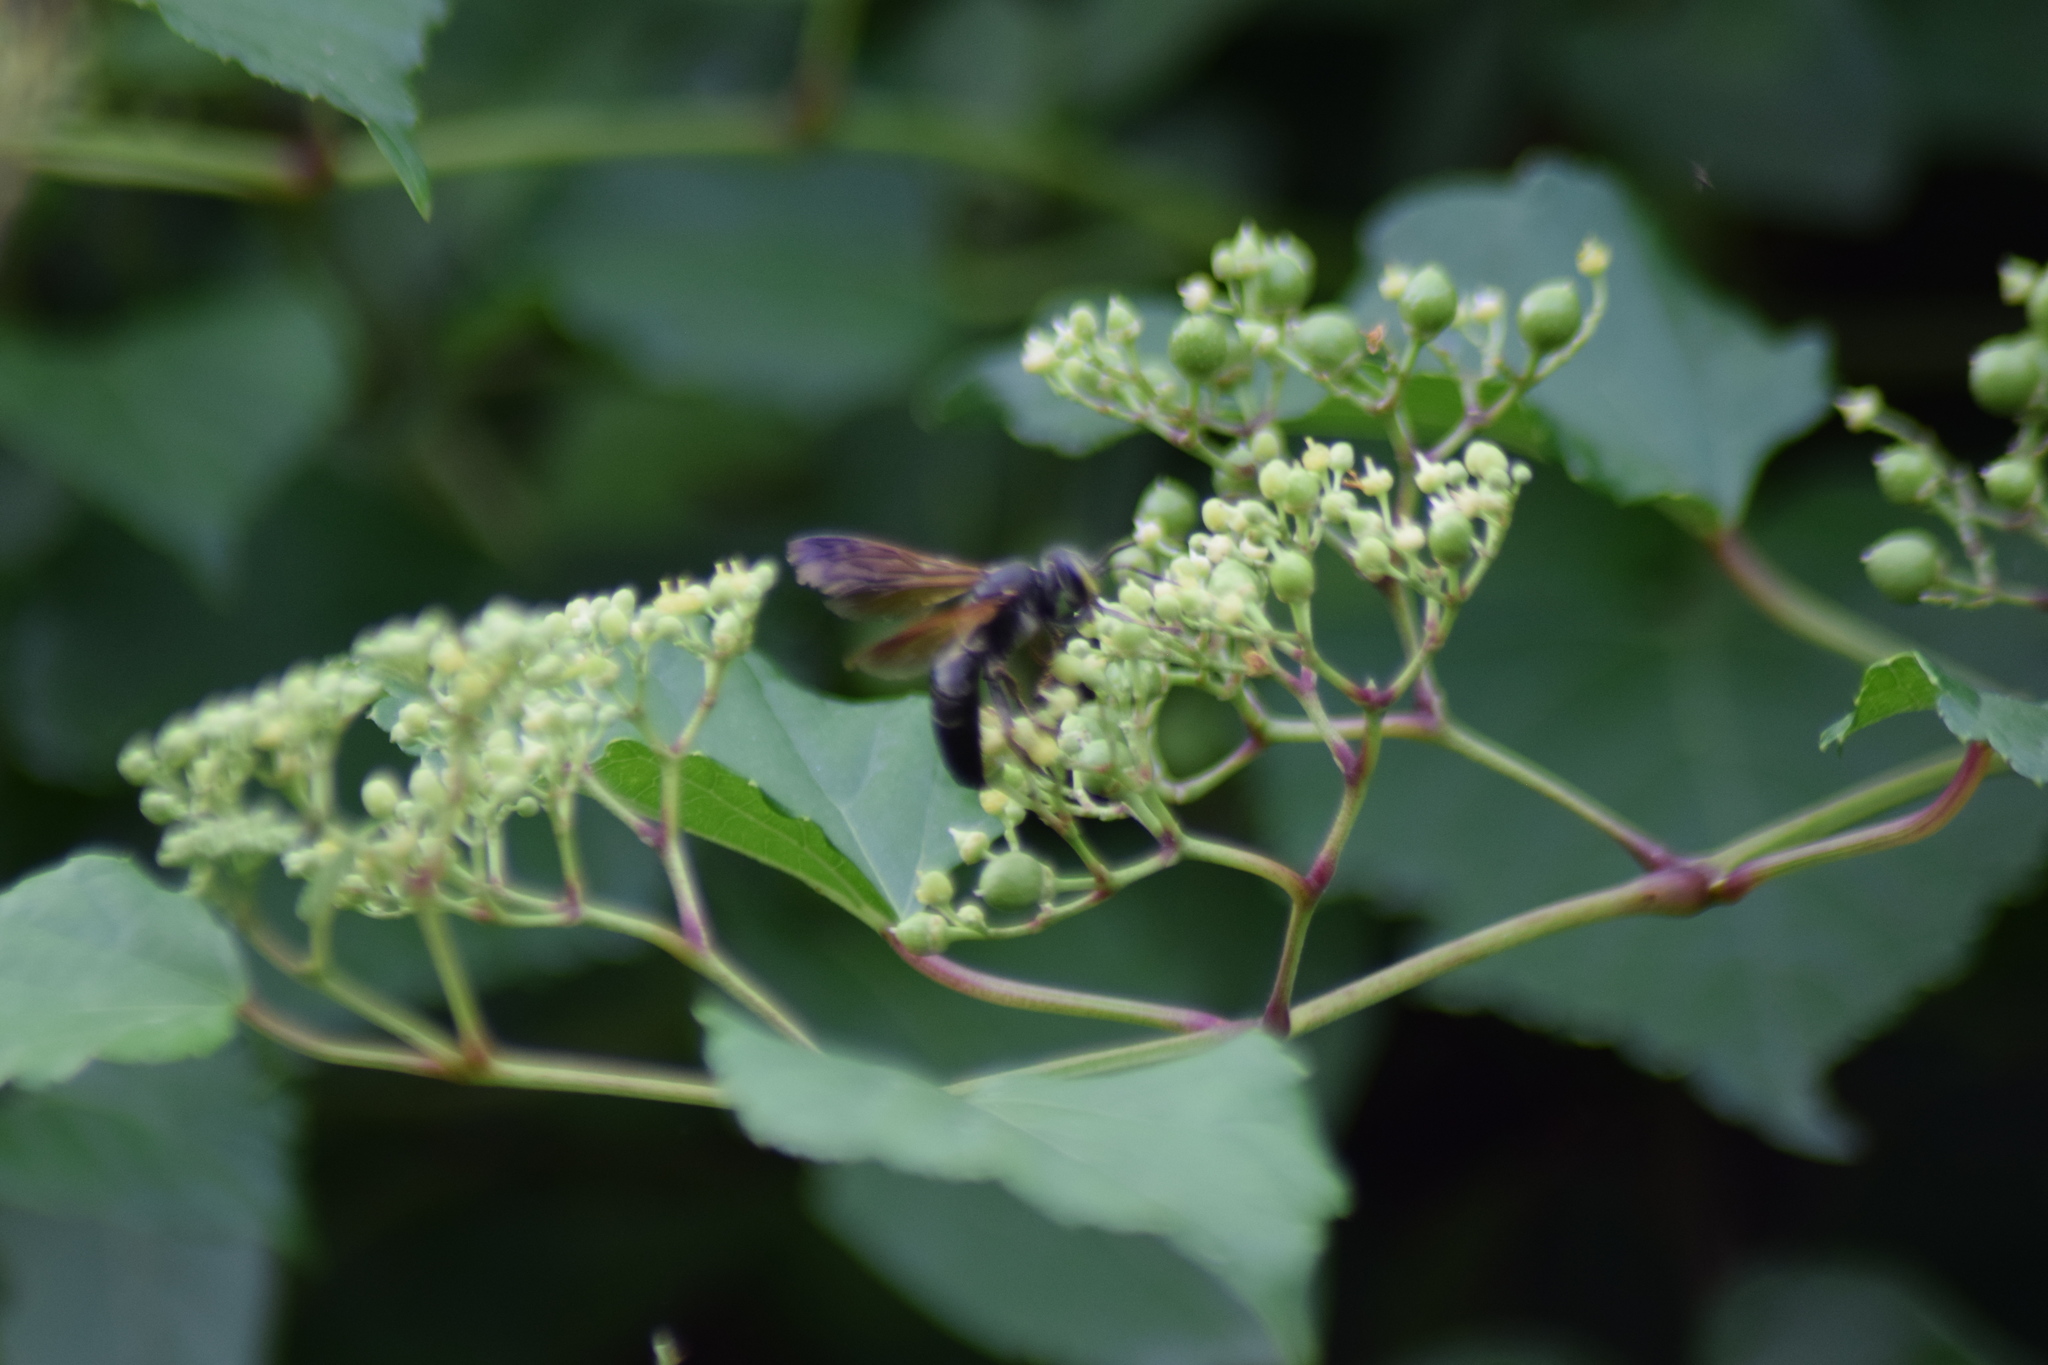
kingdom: Animalia
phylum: Arthropoda
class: Insecta
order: Hymenoptera
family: Crabronidae
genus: Tachytes
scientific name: Tachytes
